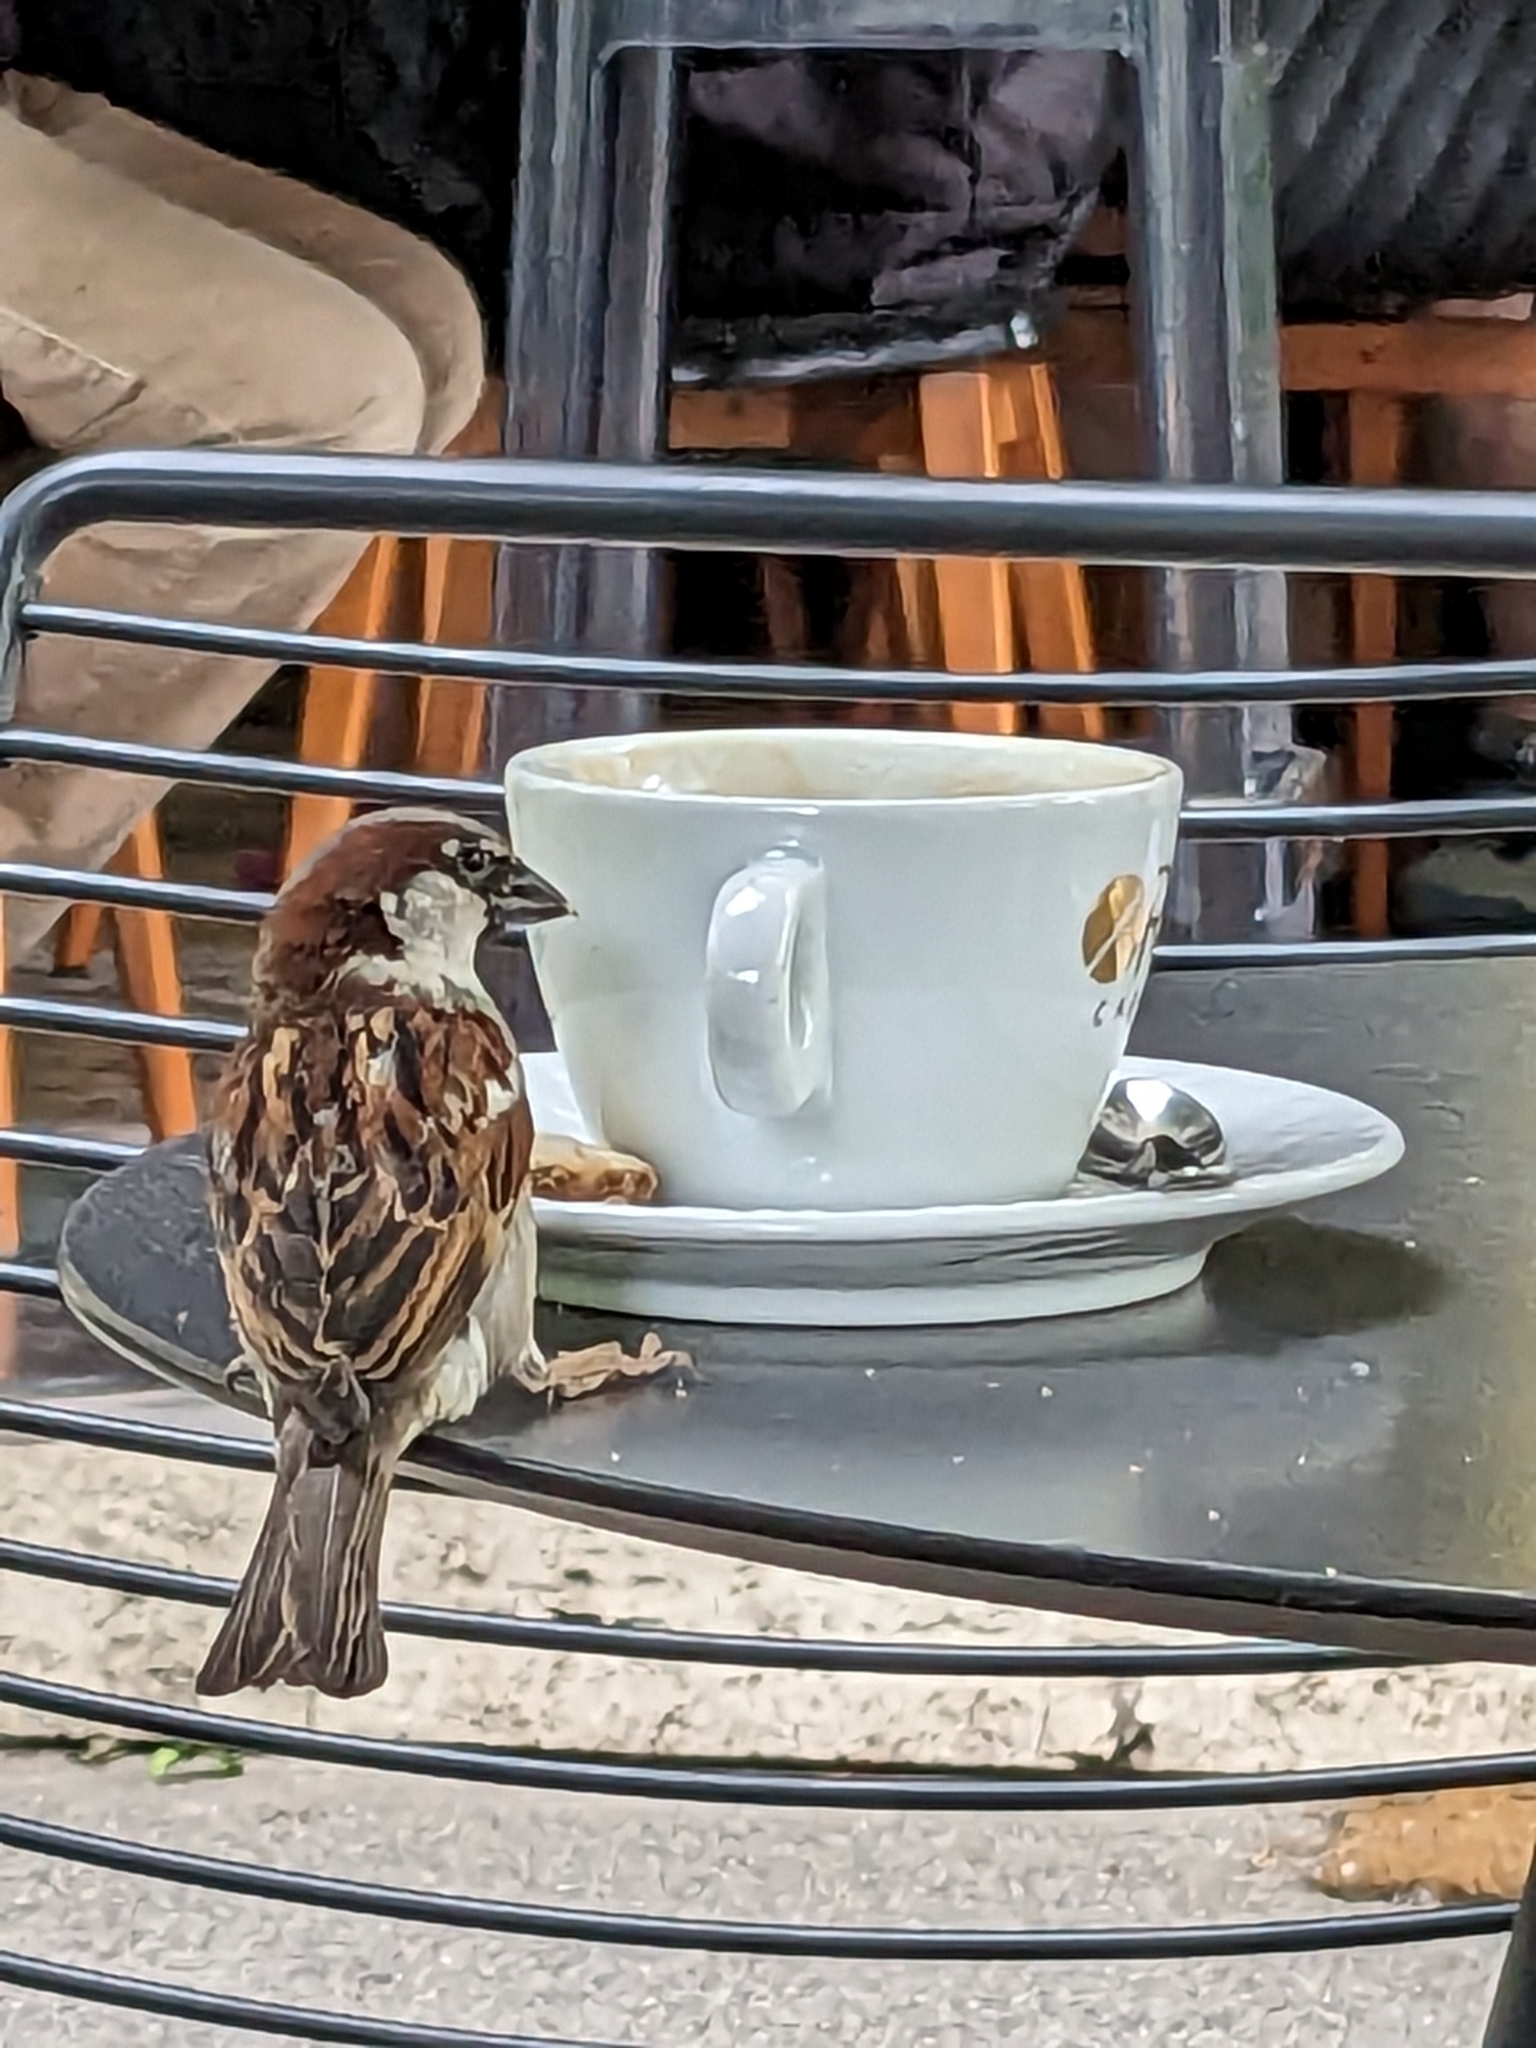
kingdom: Animalia
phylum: Chordata
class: Aves
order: Passeriformes
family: Passeridae
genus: Passer
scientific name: Passer domesticus
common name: House sparrow
